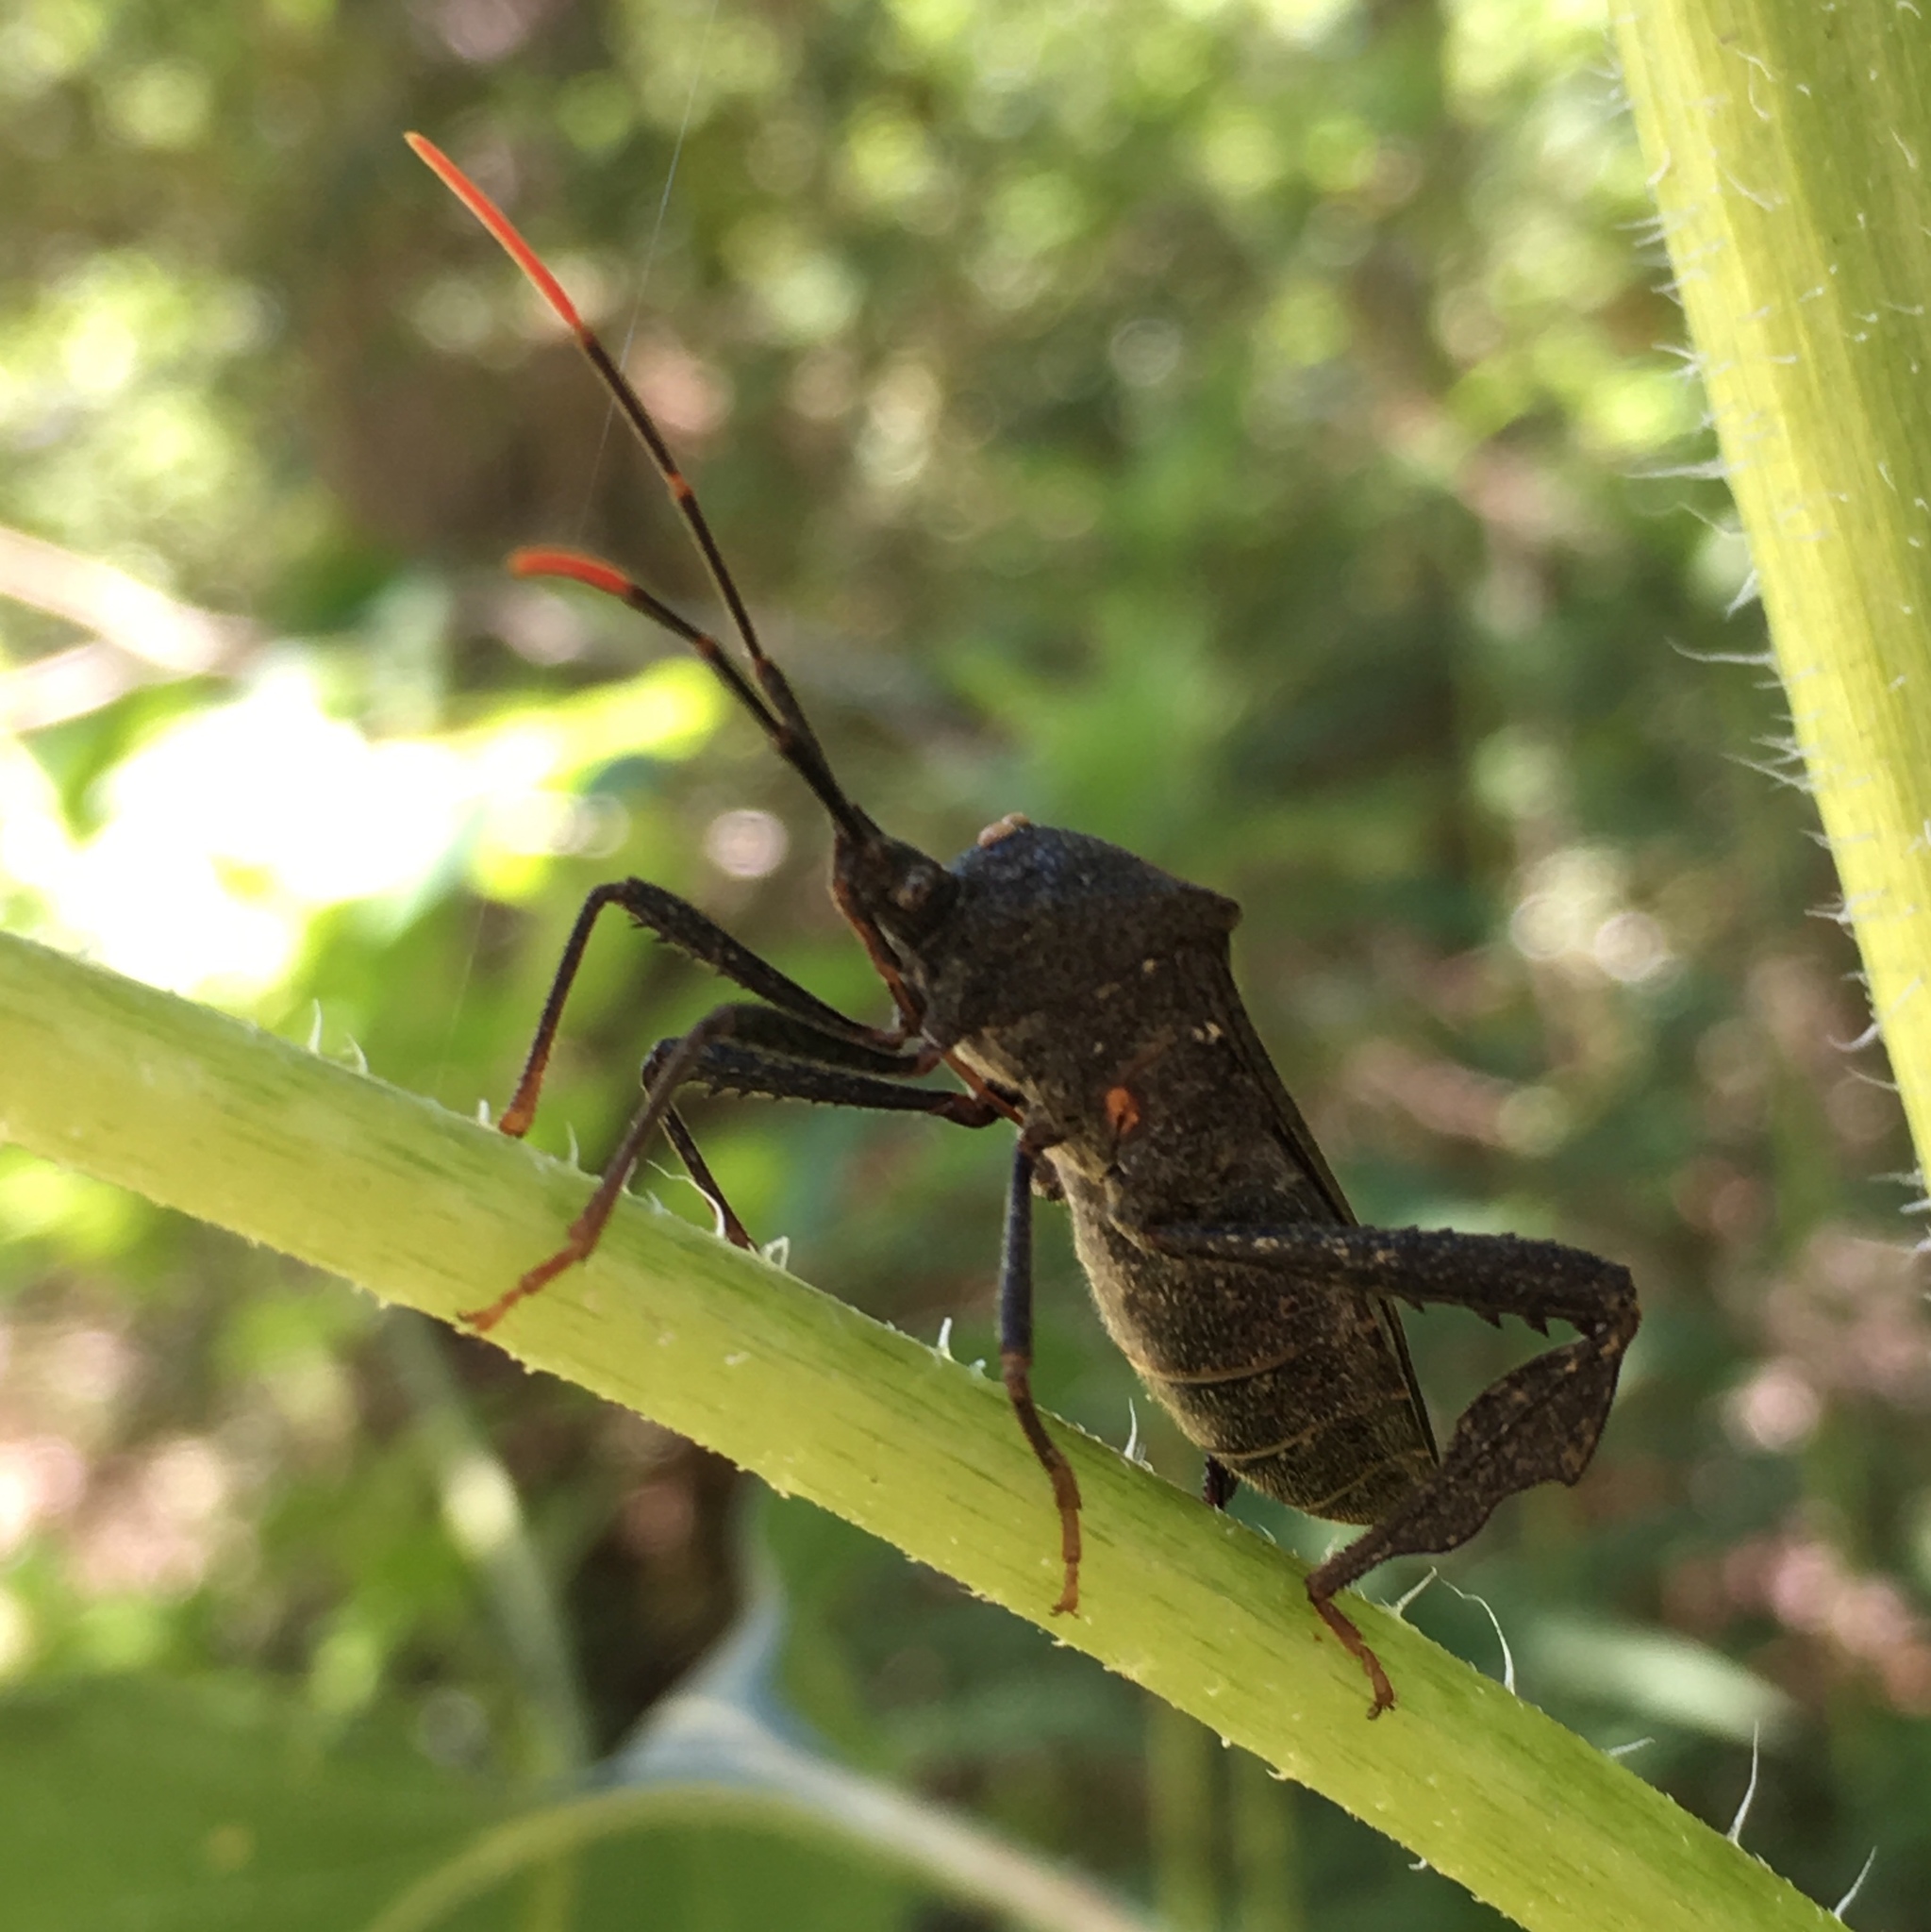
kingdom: Animalia
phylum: Arthropoda
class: Insecta
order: Hemiptera
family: Coreidae
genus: Acanthocephala
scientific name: Acanthocephala terminalis
